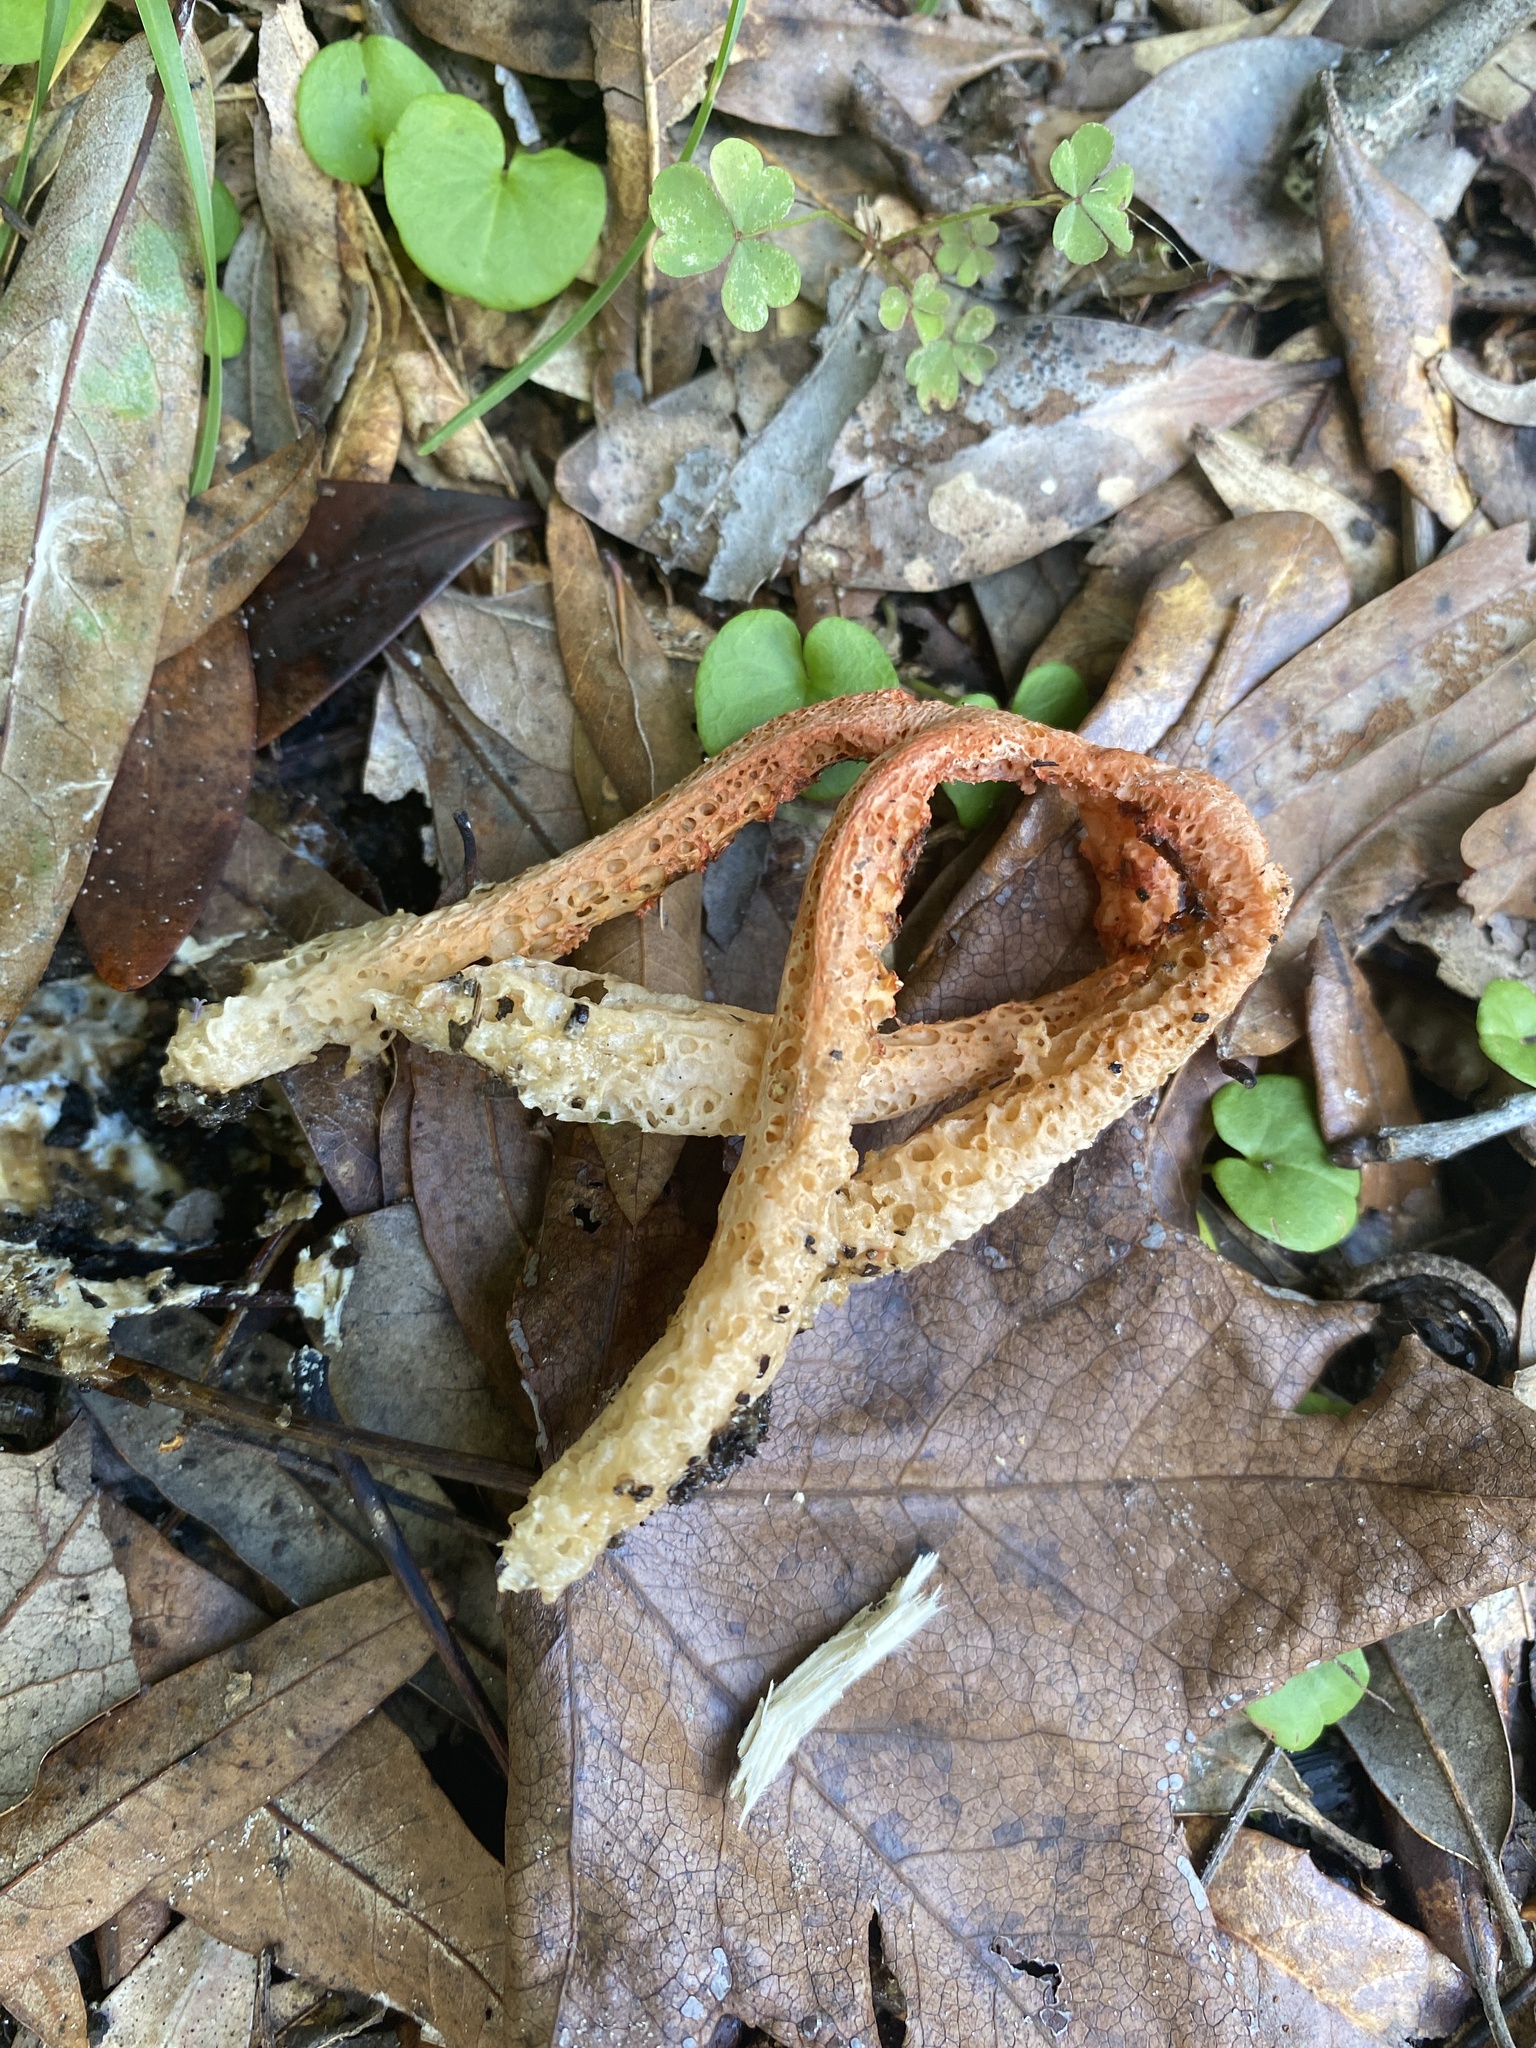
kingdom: Fungi
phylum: Basidiomycota
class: Agaricomycetes
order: Phallales
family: Phallaceae
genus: Clathrus
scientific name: Clathrus columnatus
